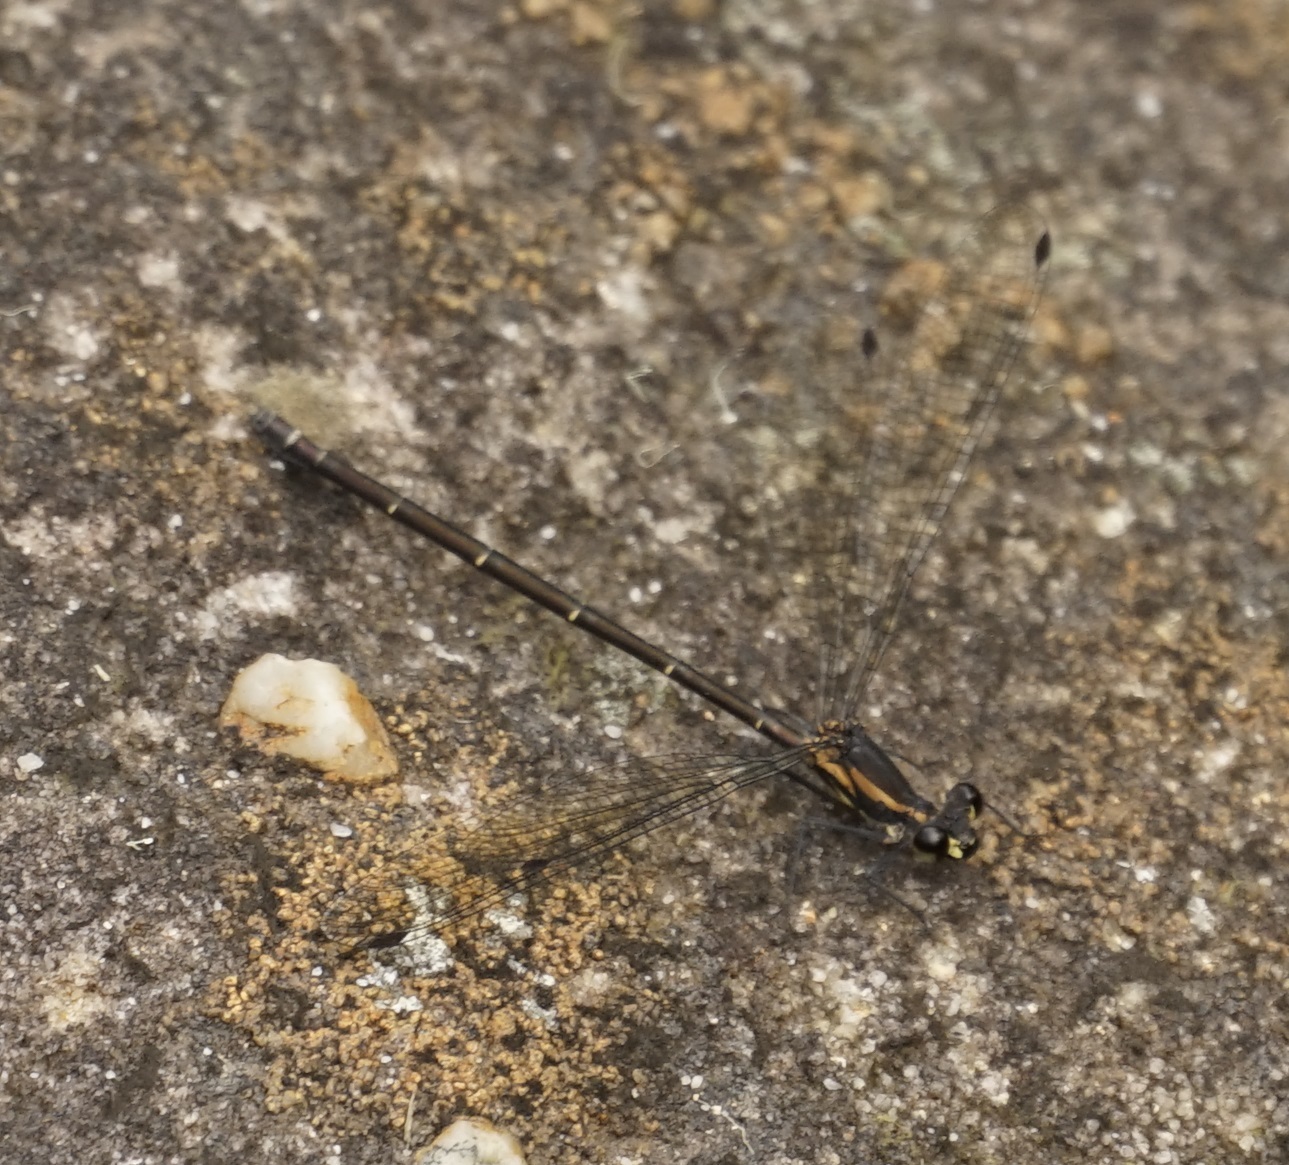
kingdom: Animalia
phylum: Arthropoda
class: Insecta
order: Odonata
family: Argiolestidae
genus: Austroargiolestes
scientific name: Austroargiolestes icteromelas
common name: Common flatwing
